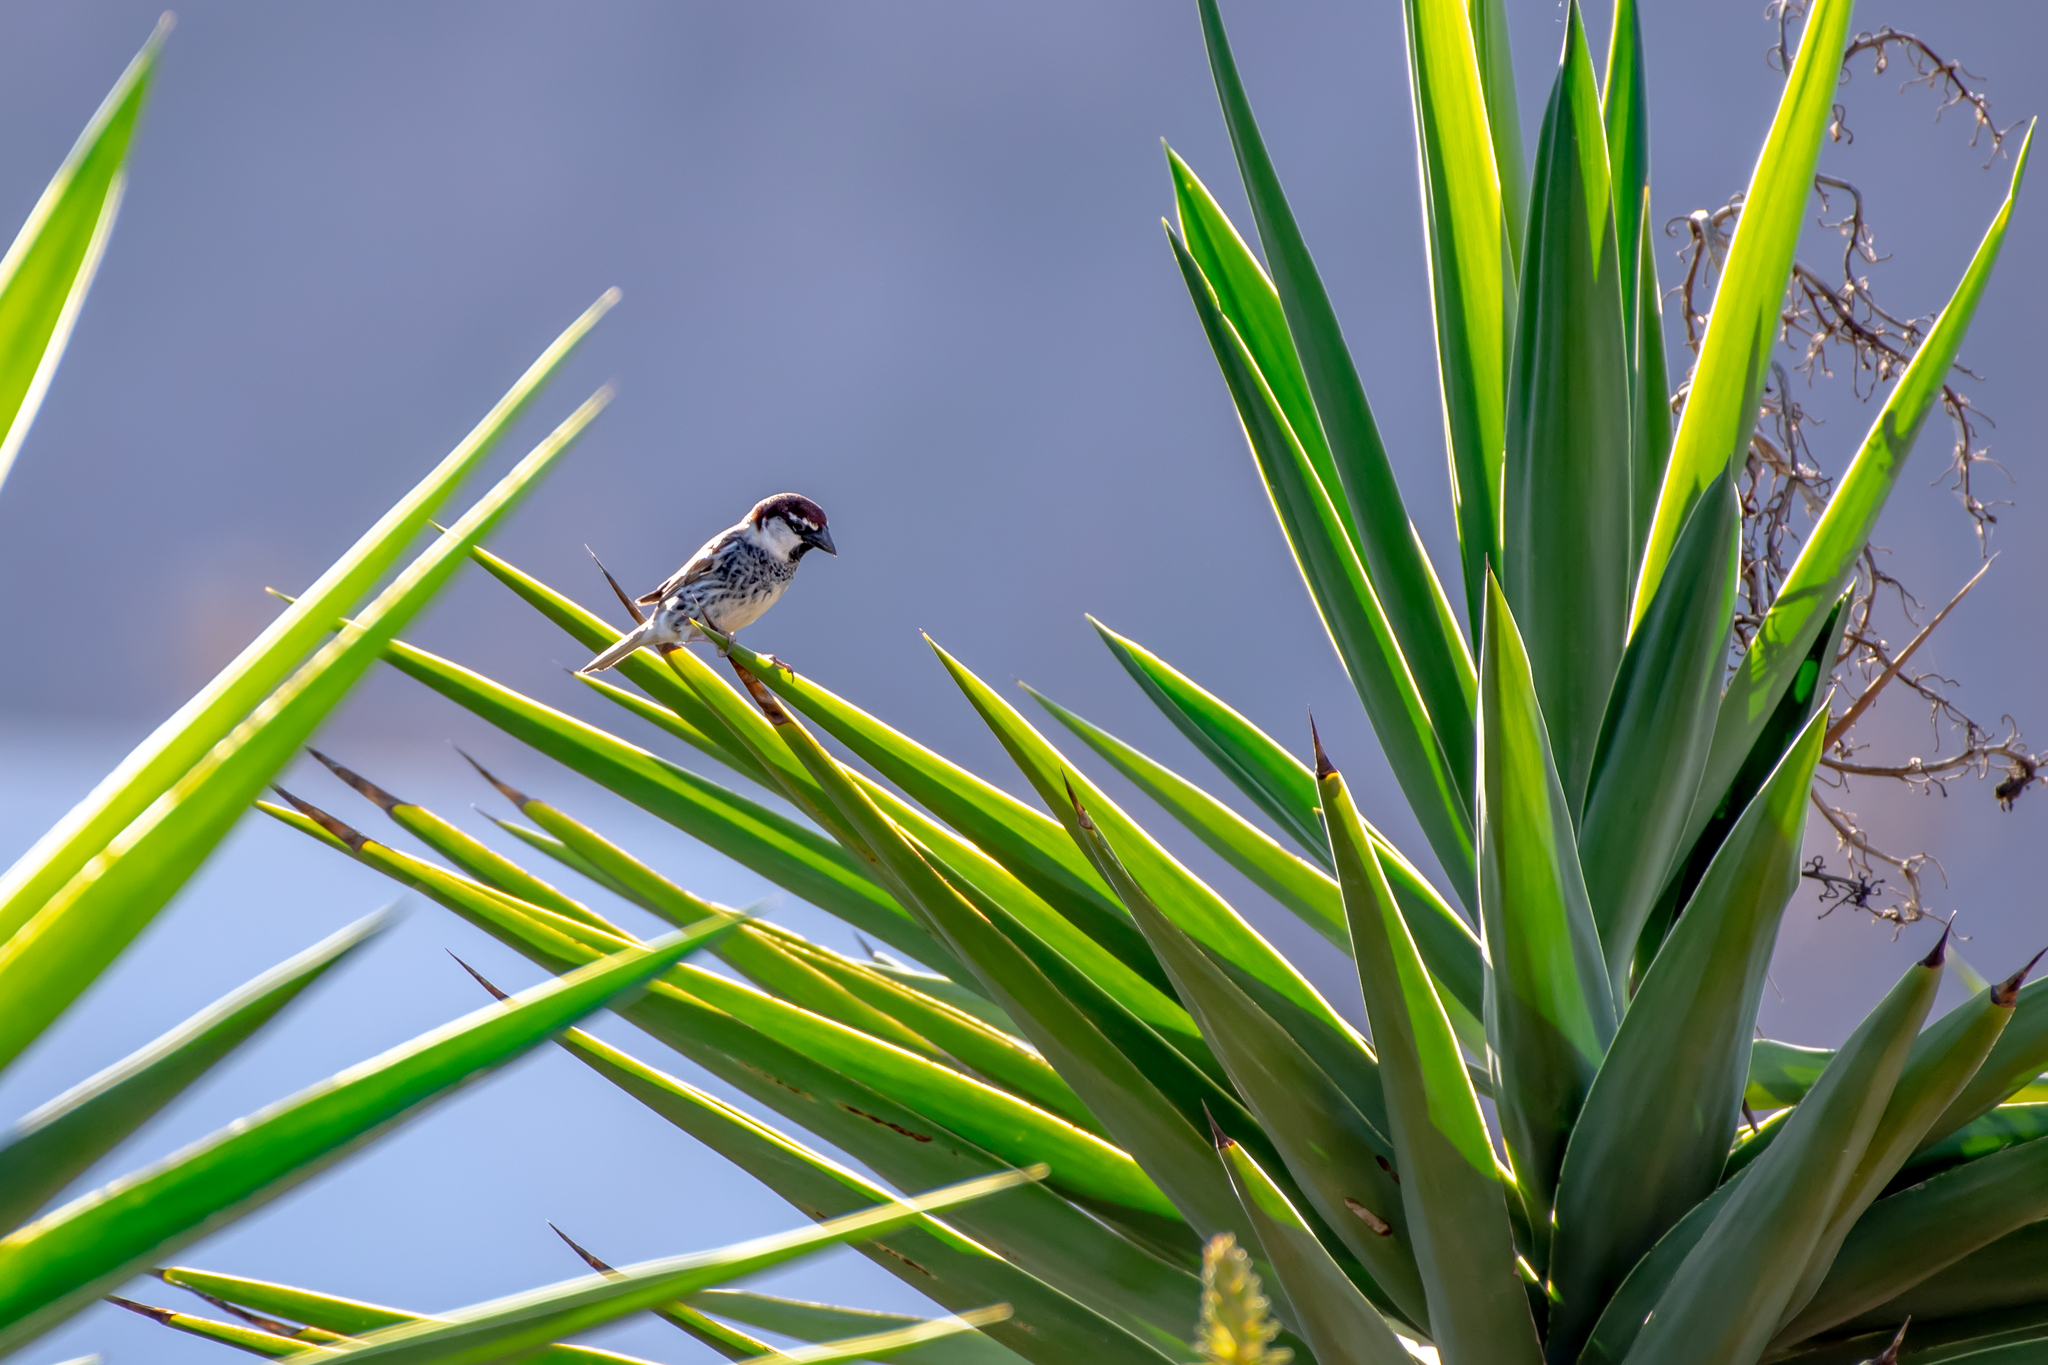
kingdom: Animalia
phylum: Chordata
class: Aves
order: Passeriformes
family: Passeridae
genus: Passer
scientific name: Passer hispaniolensis
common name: Spanish sparrow
